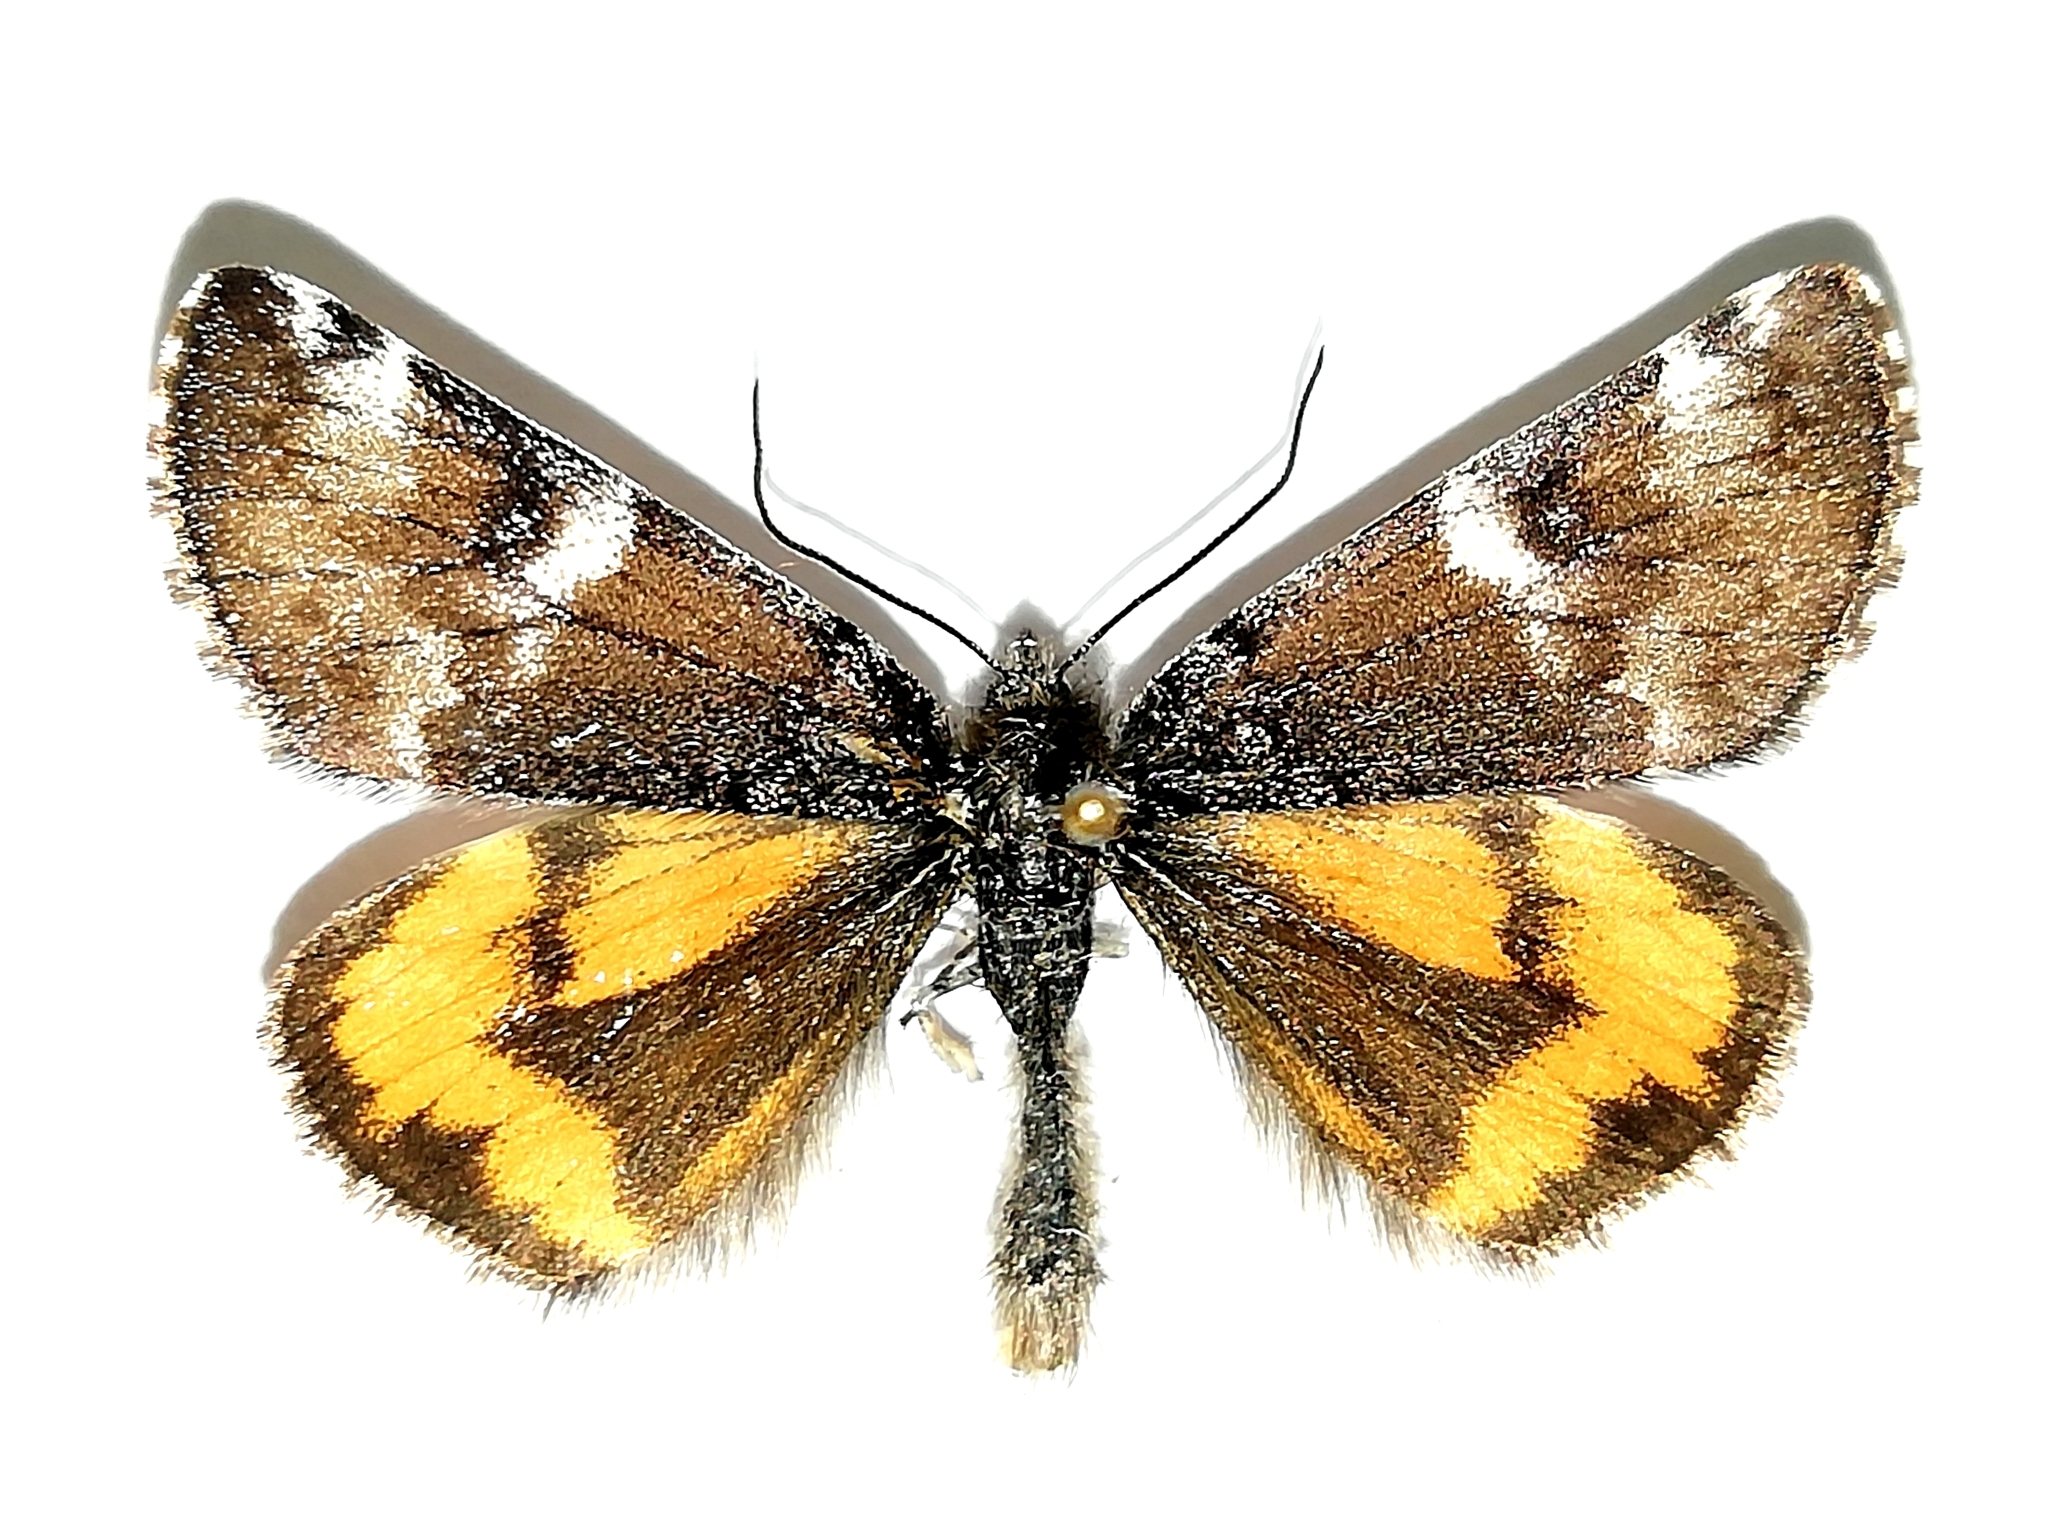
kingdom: Animalia
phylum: Arthropoda
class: Insecta
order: Lepidoptera
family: Geometridae
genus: Archiearis
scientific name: Archiearis parthenias
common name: Orange underwing
